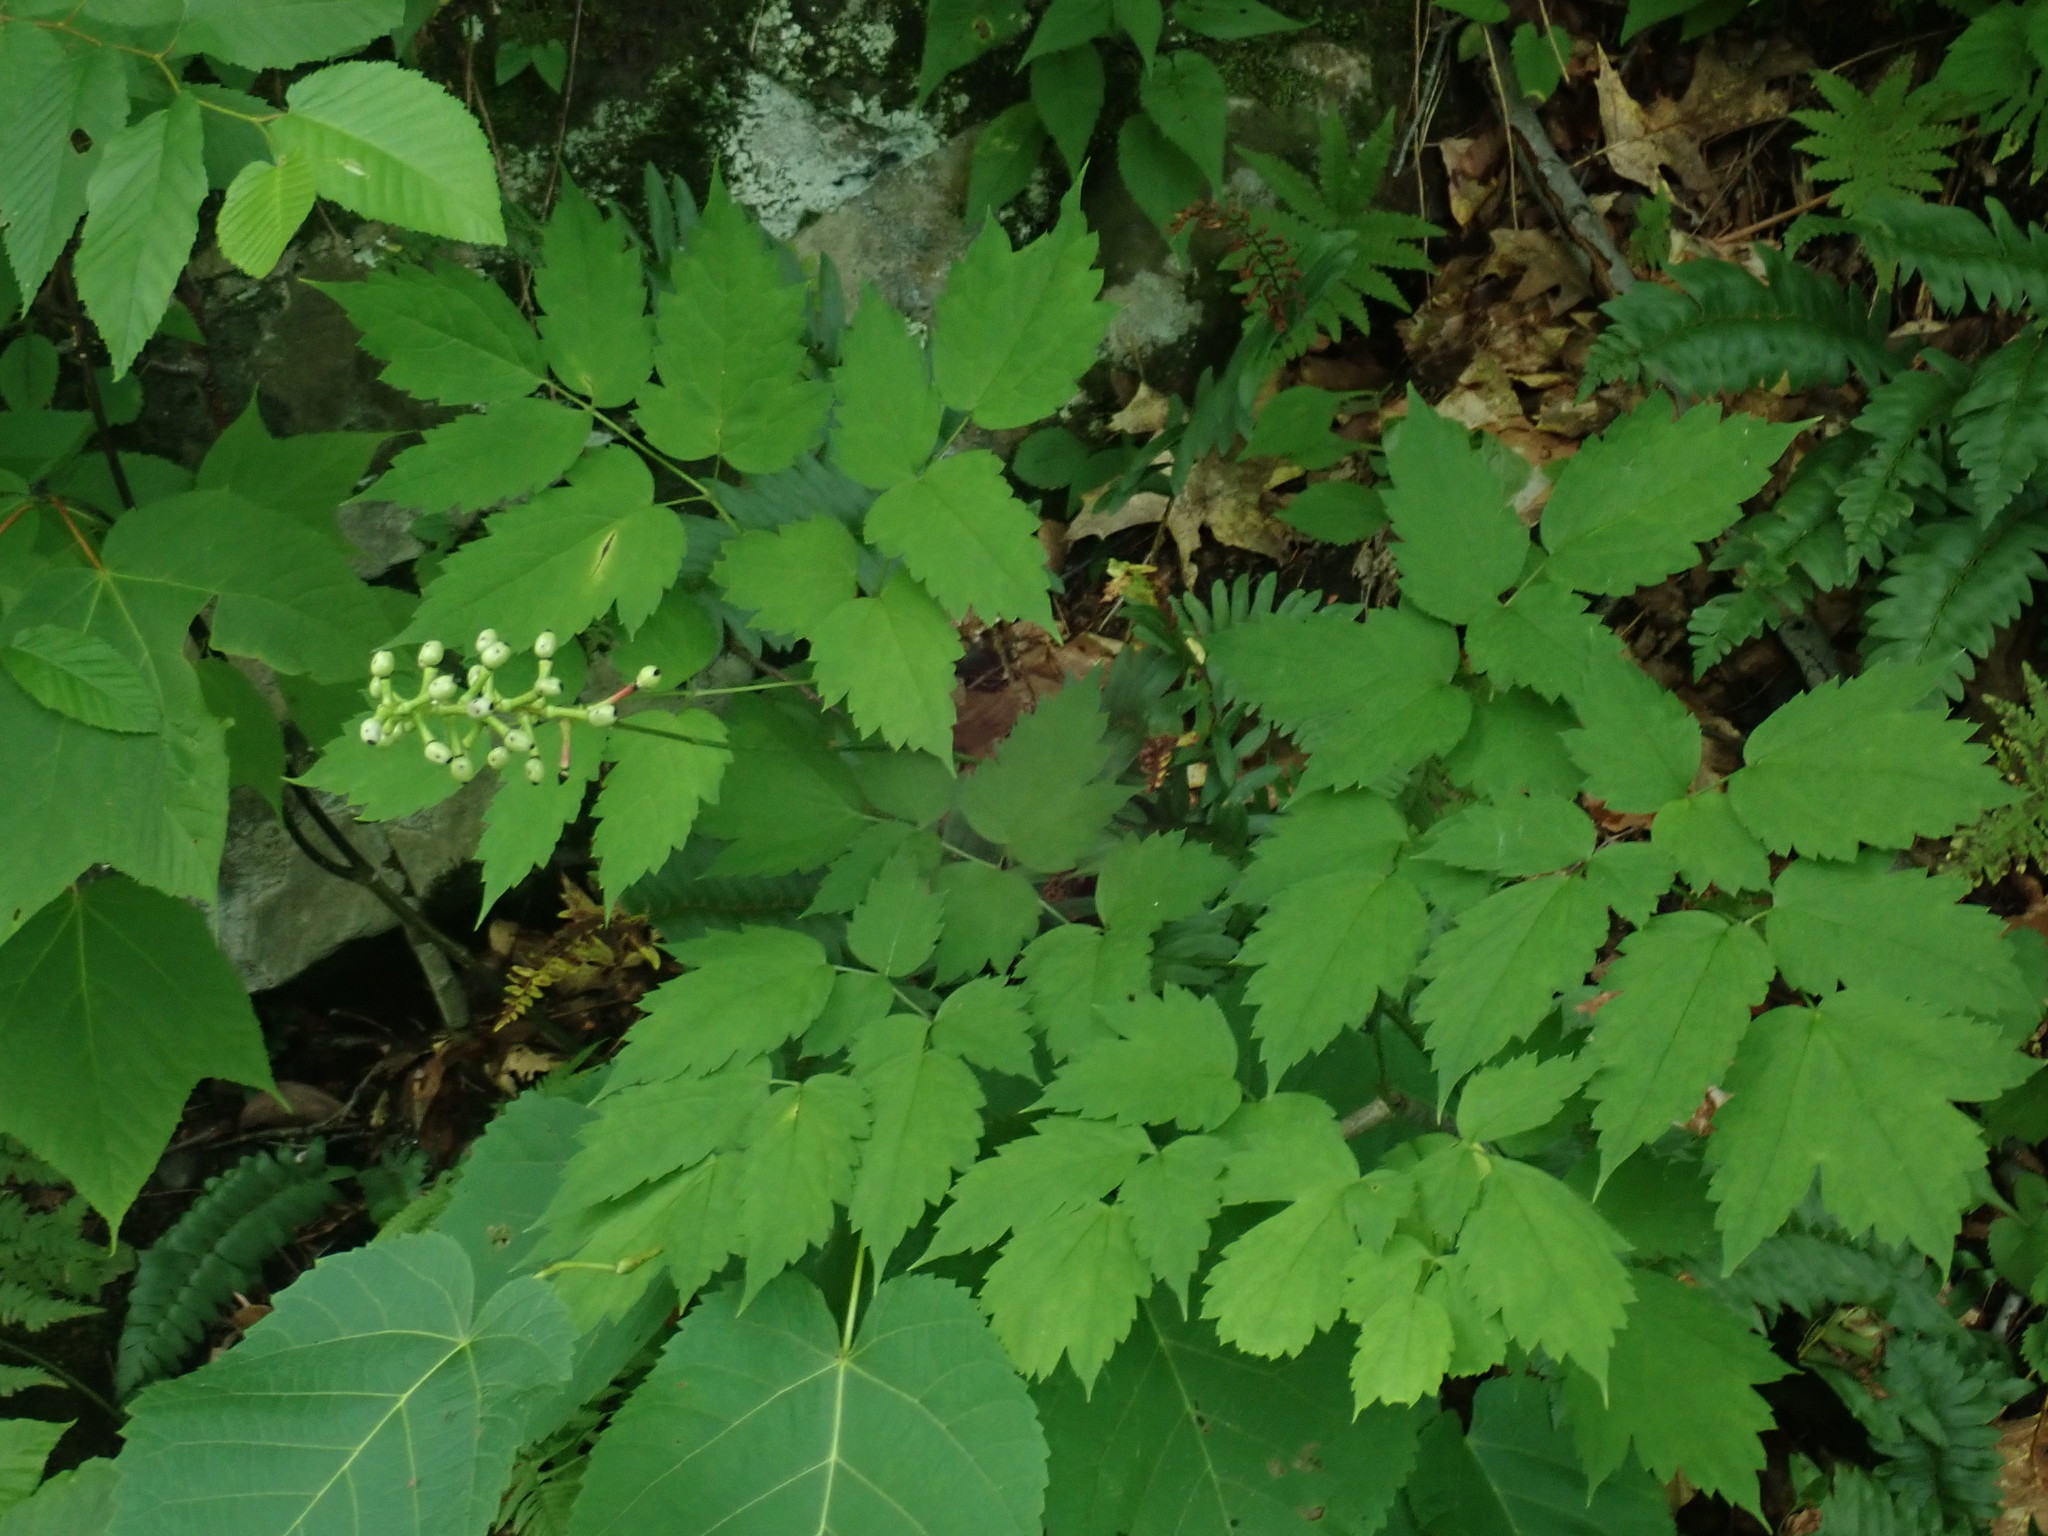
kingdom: Plantae
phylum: Tracheophyta
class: Magnoliopsida
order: Ranunculales
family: Ranunculaceae
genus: Actaea
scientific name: Actaea pachypoda
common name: Doll's-eyes
